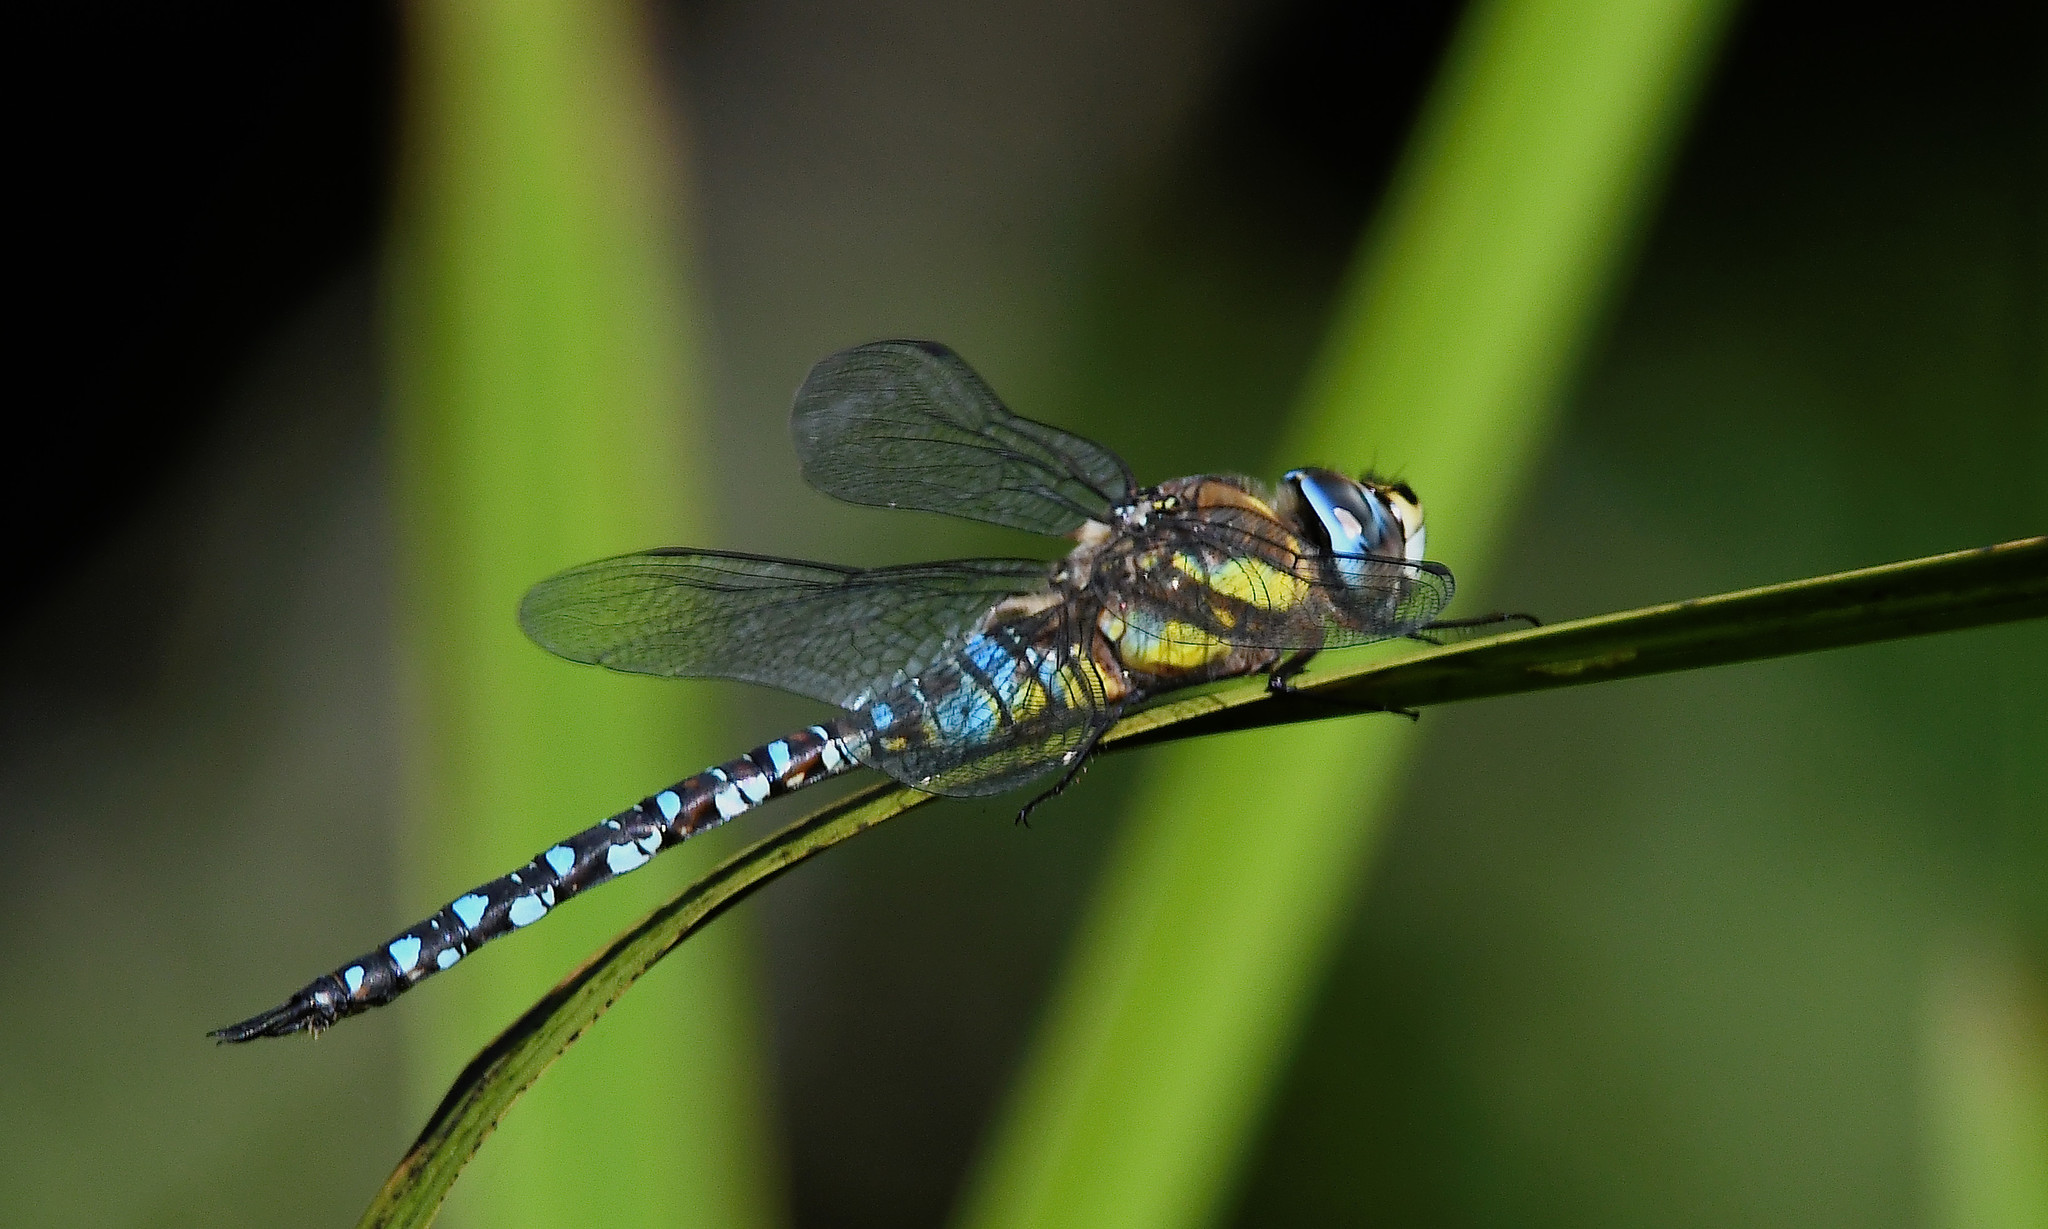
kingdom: Animalia
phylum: Arthropoda
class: Insecta
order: Odonata
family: Aeshnidae
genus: Aeshna
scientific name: Aeshna mixta
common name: Migrant hawker
